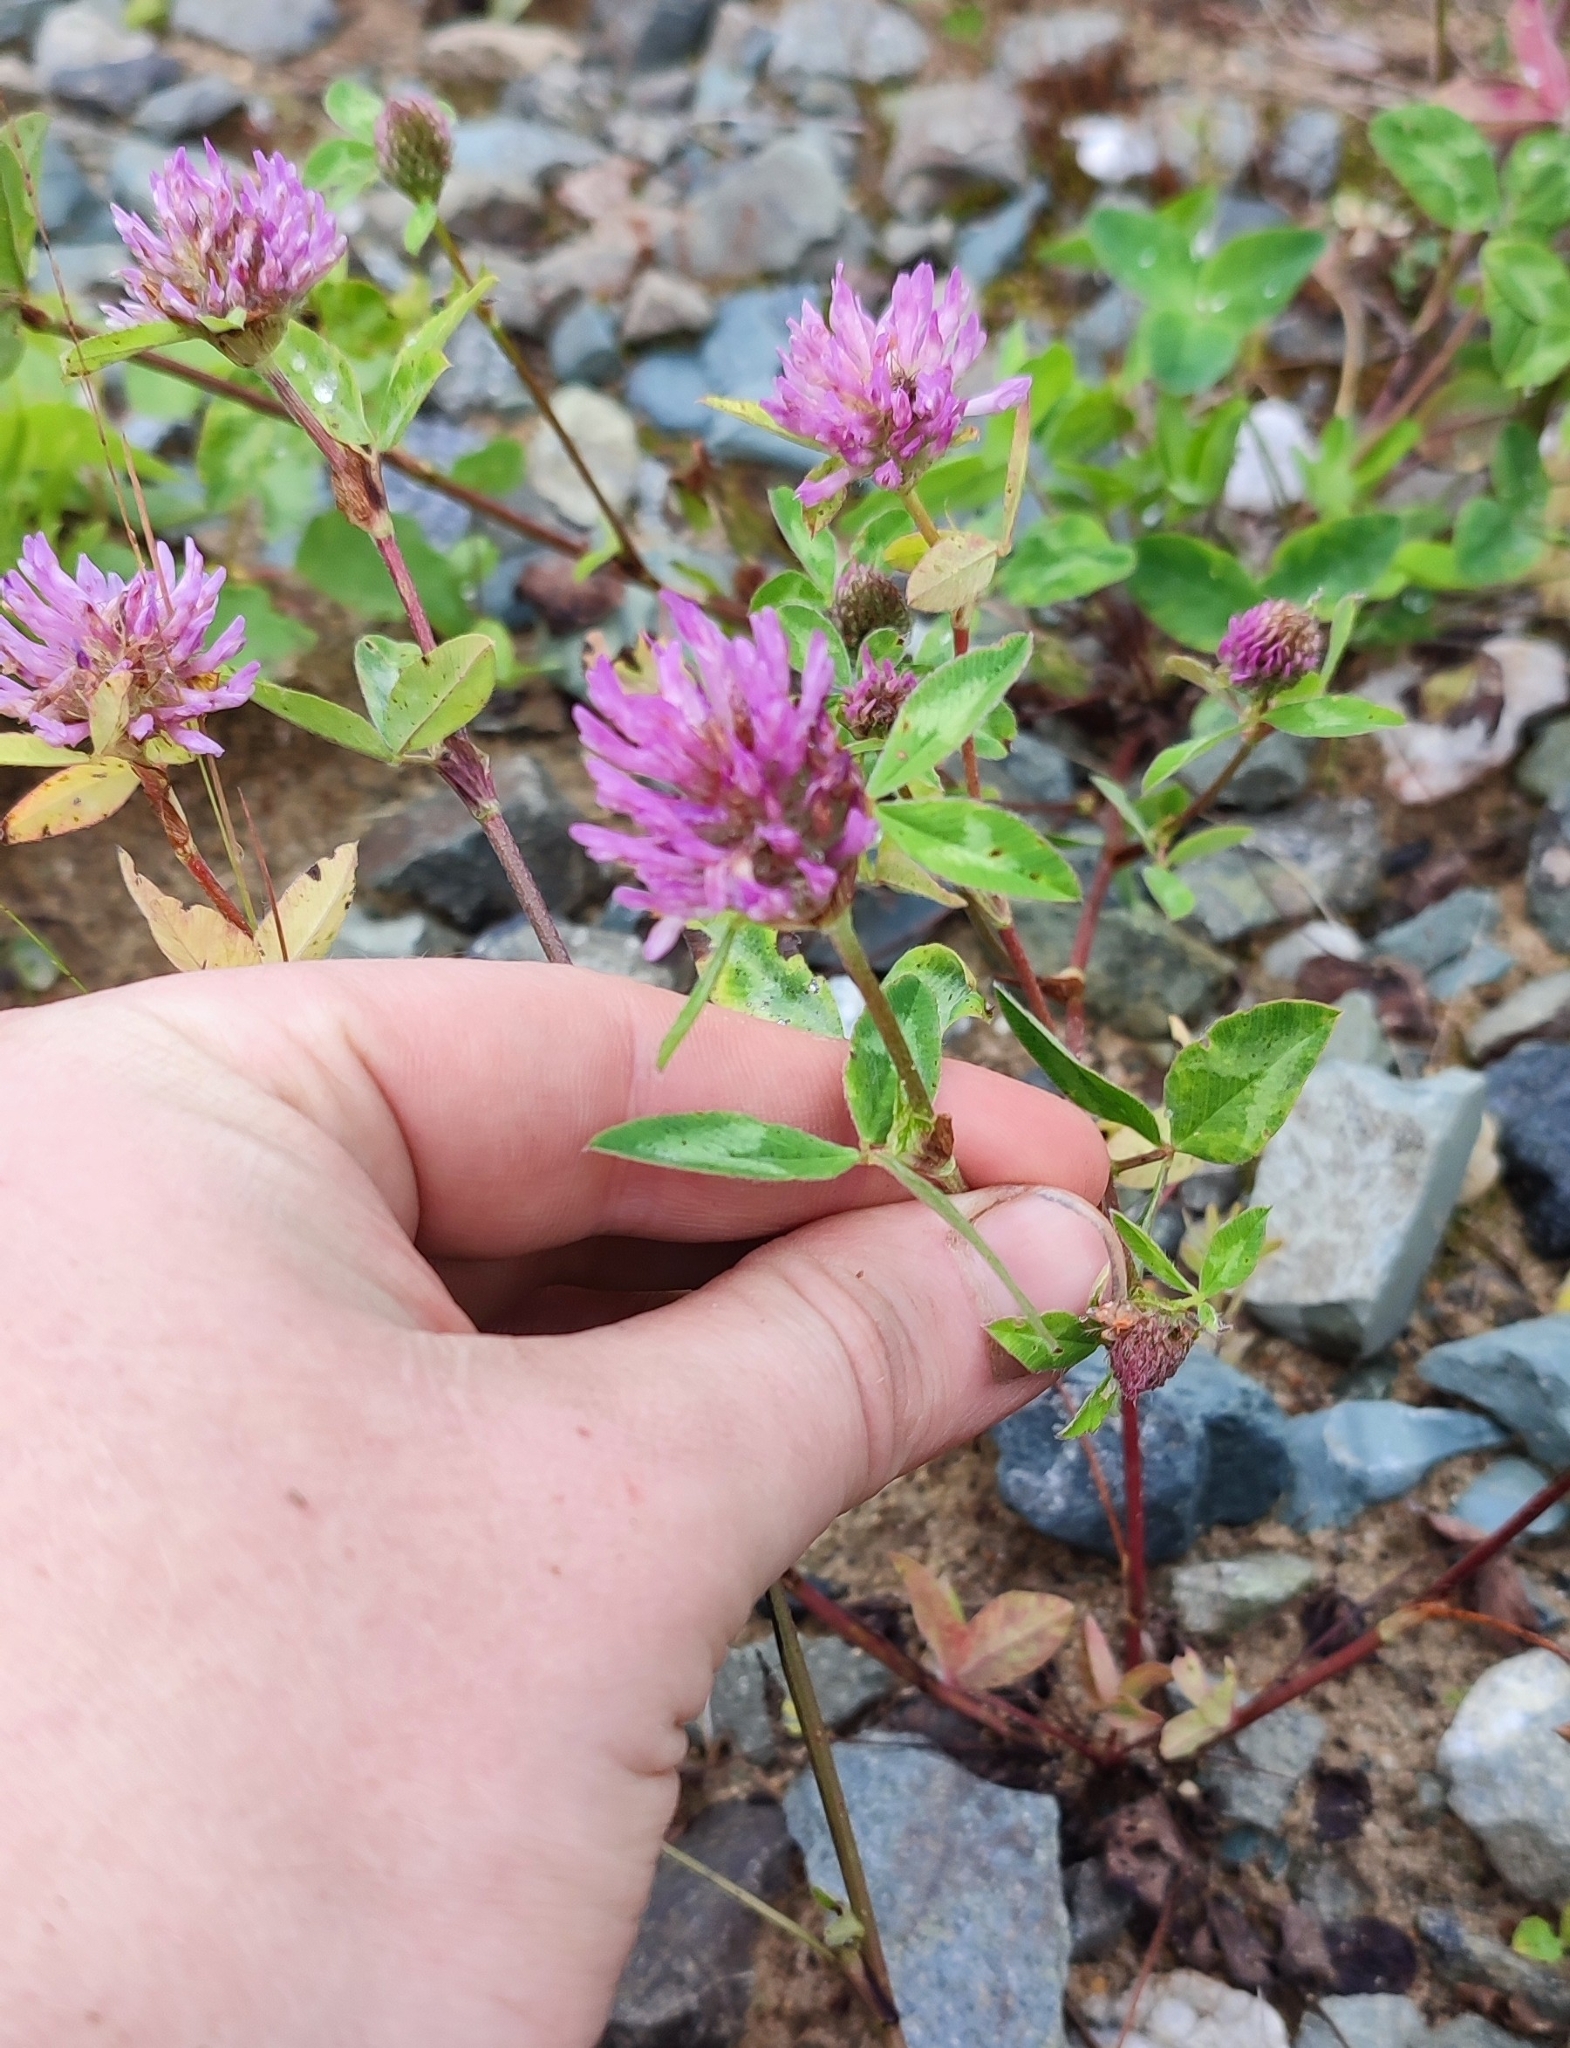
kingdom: Plantae
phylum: Tracheophyta
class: Magnoliopsida
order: Fabales
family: Fabaceae
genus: Trifolium
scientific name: Trifolium pratense
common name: Red clover
